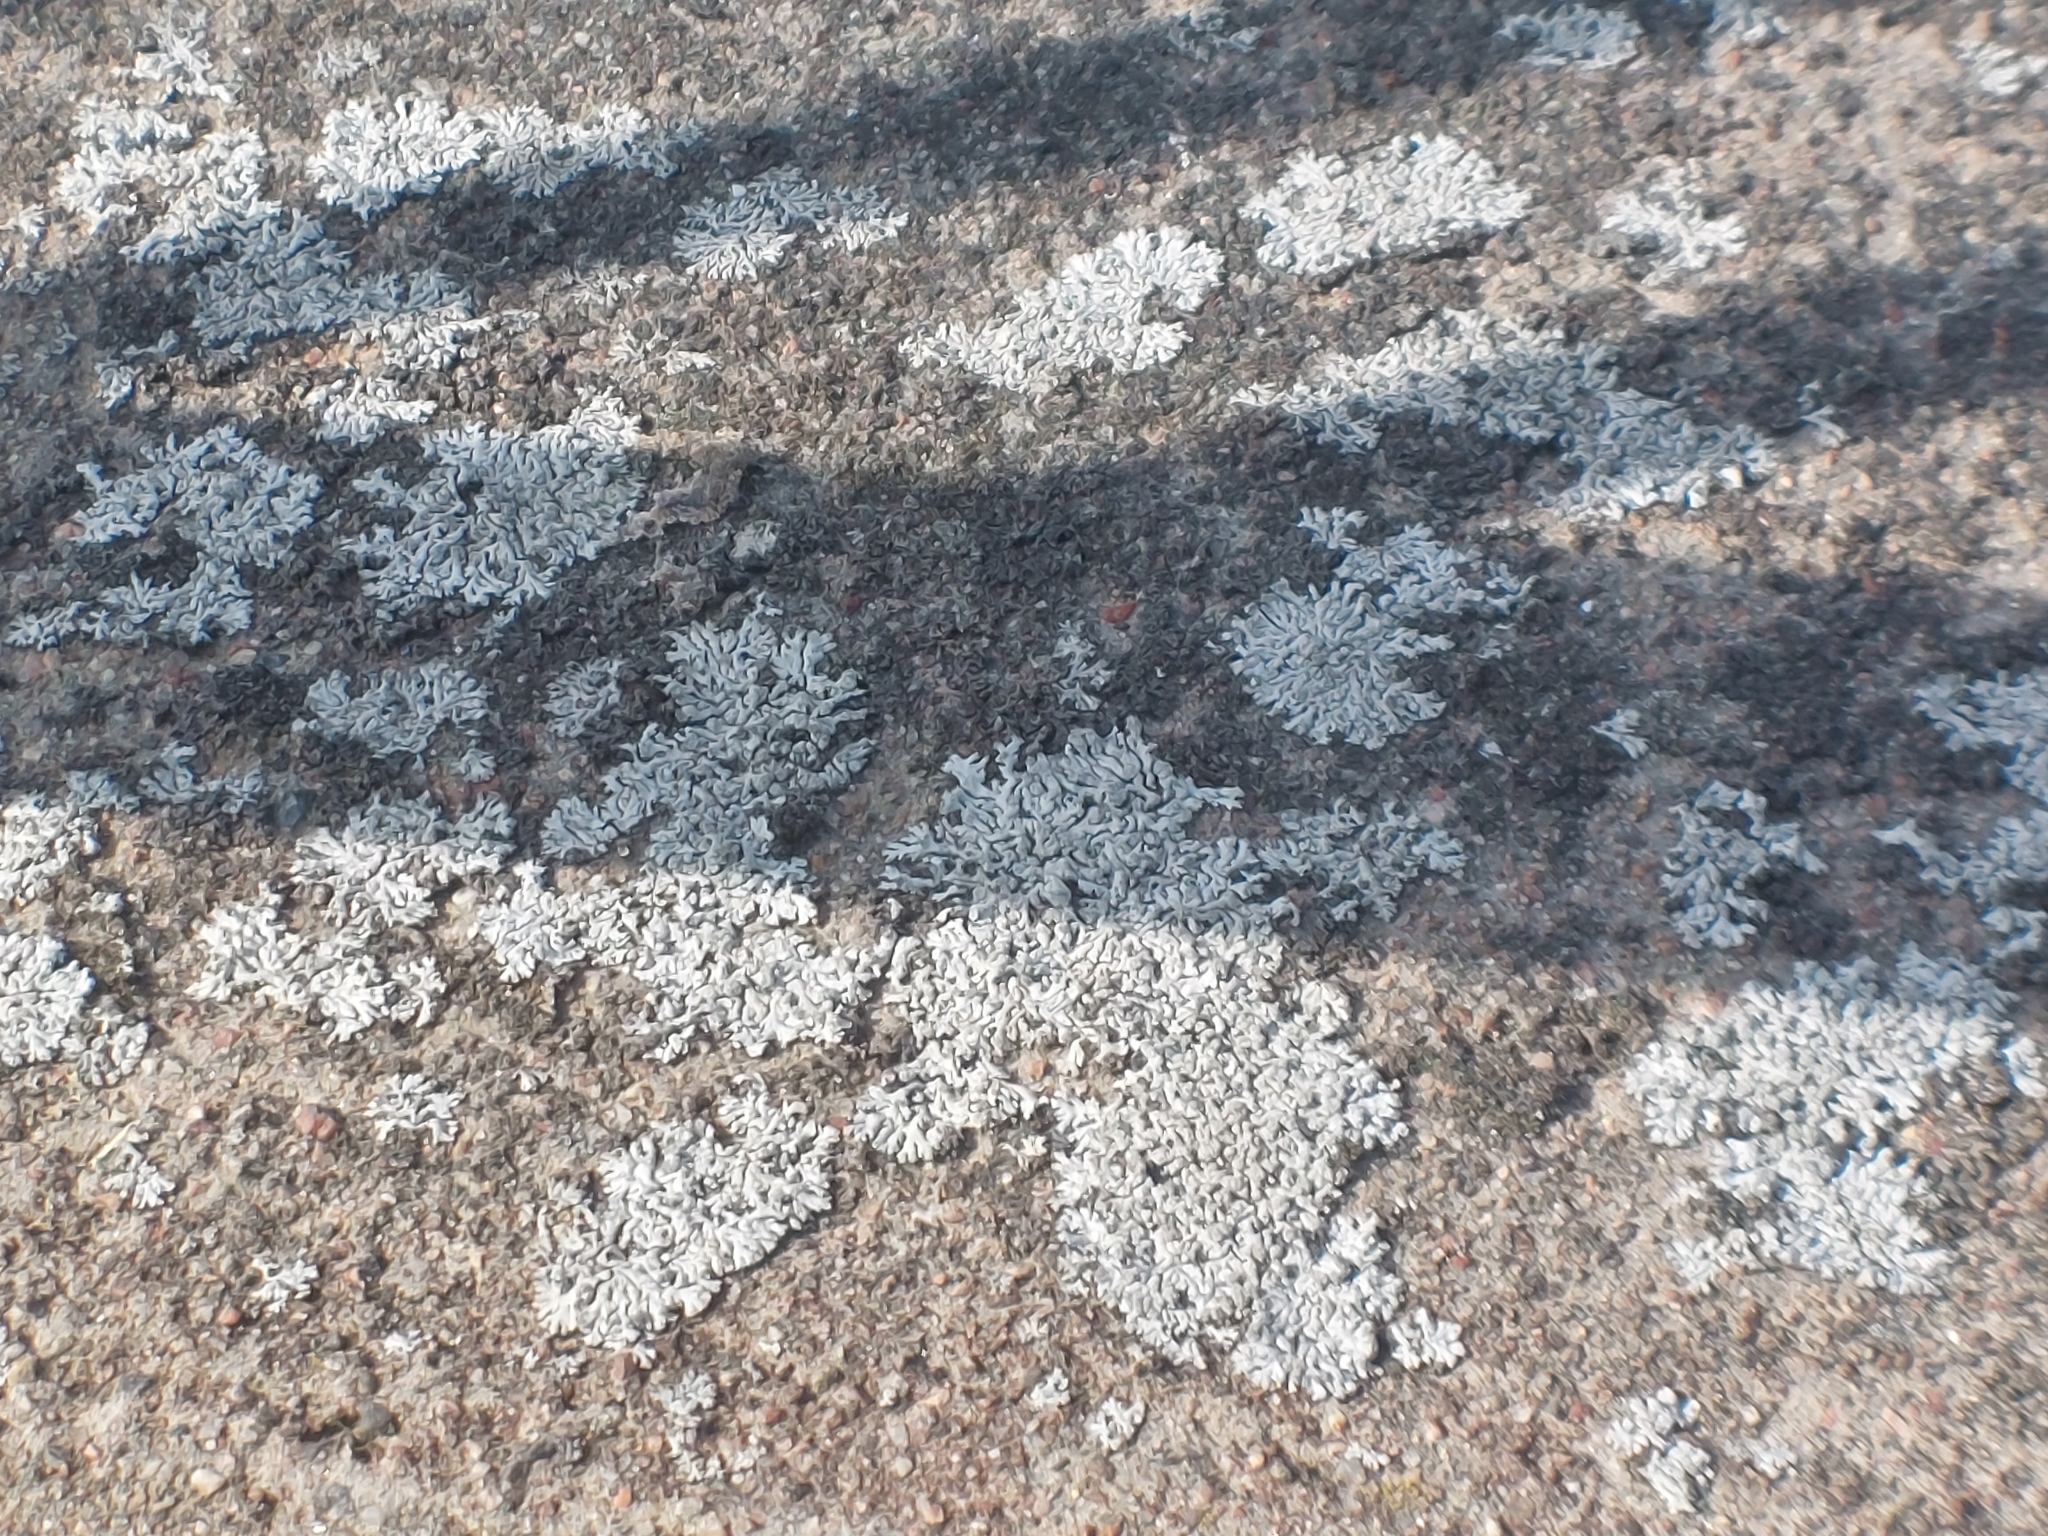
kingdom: Fungi
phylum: Ascomycota
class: Lecanoromycetes
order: Caliciales
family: Physciaceae
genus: Physcia
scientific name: Physcia caesia
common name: Blue-gray rosette lichen
